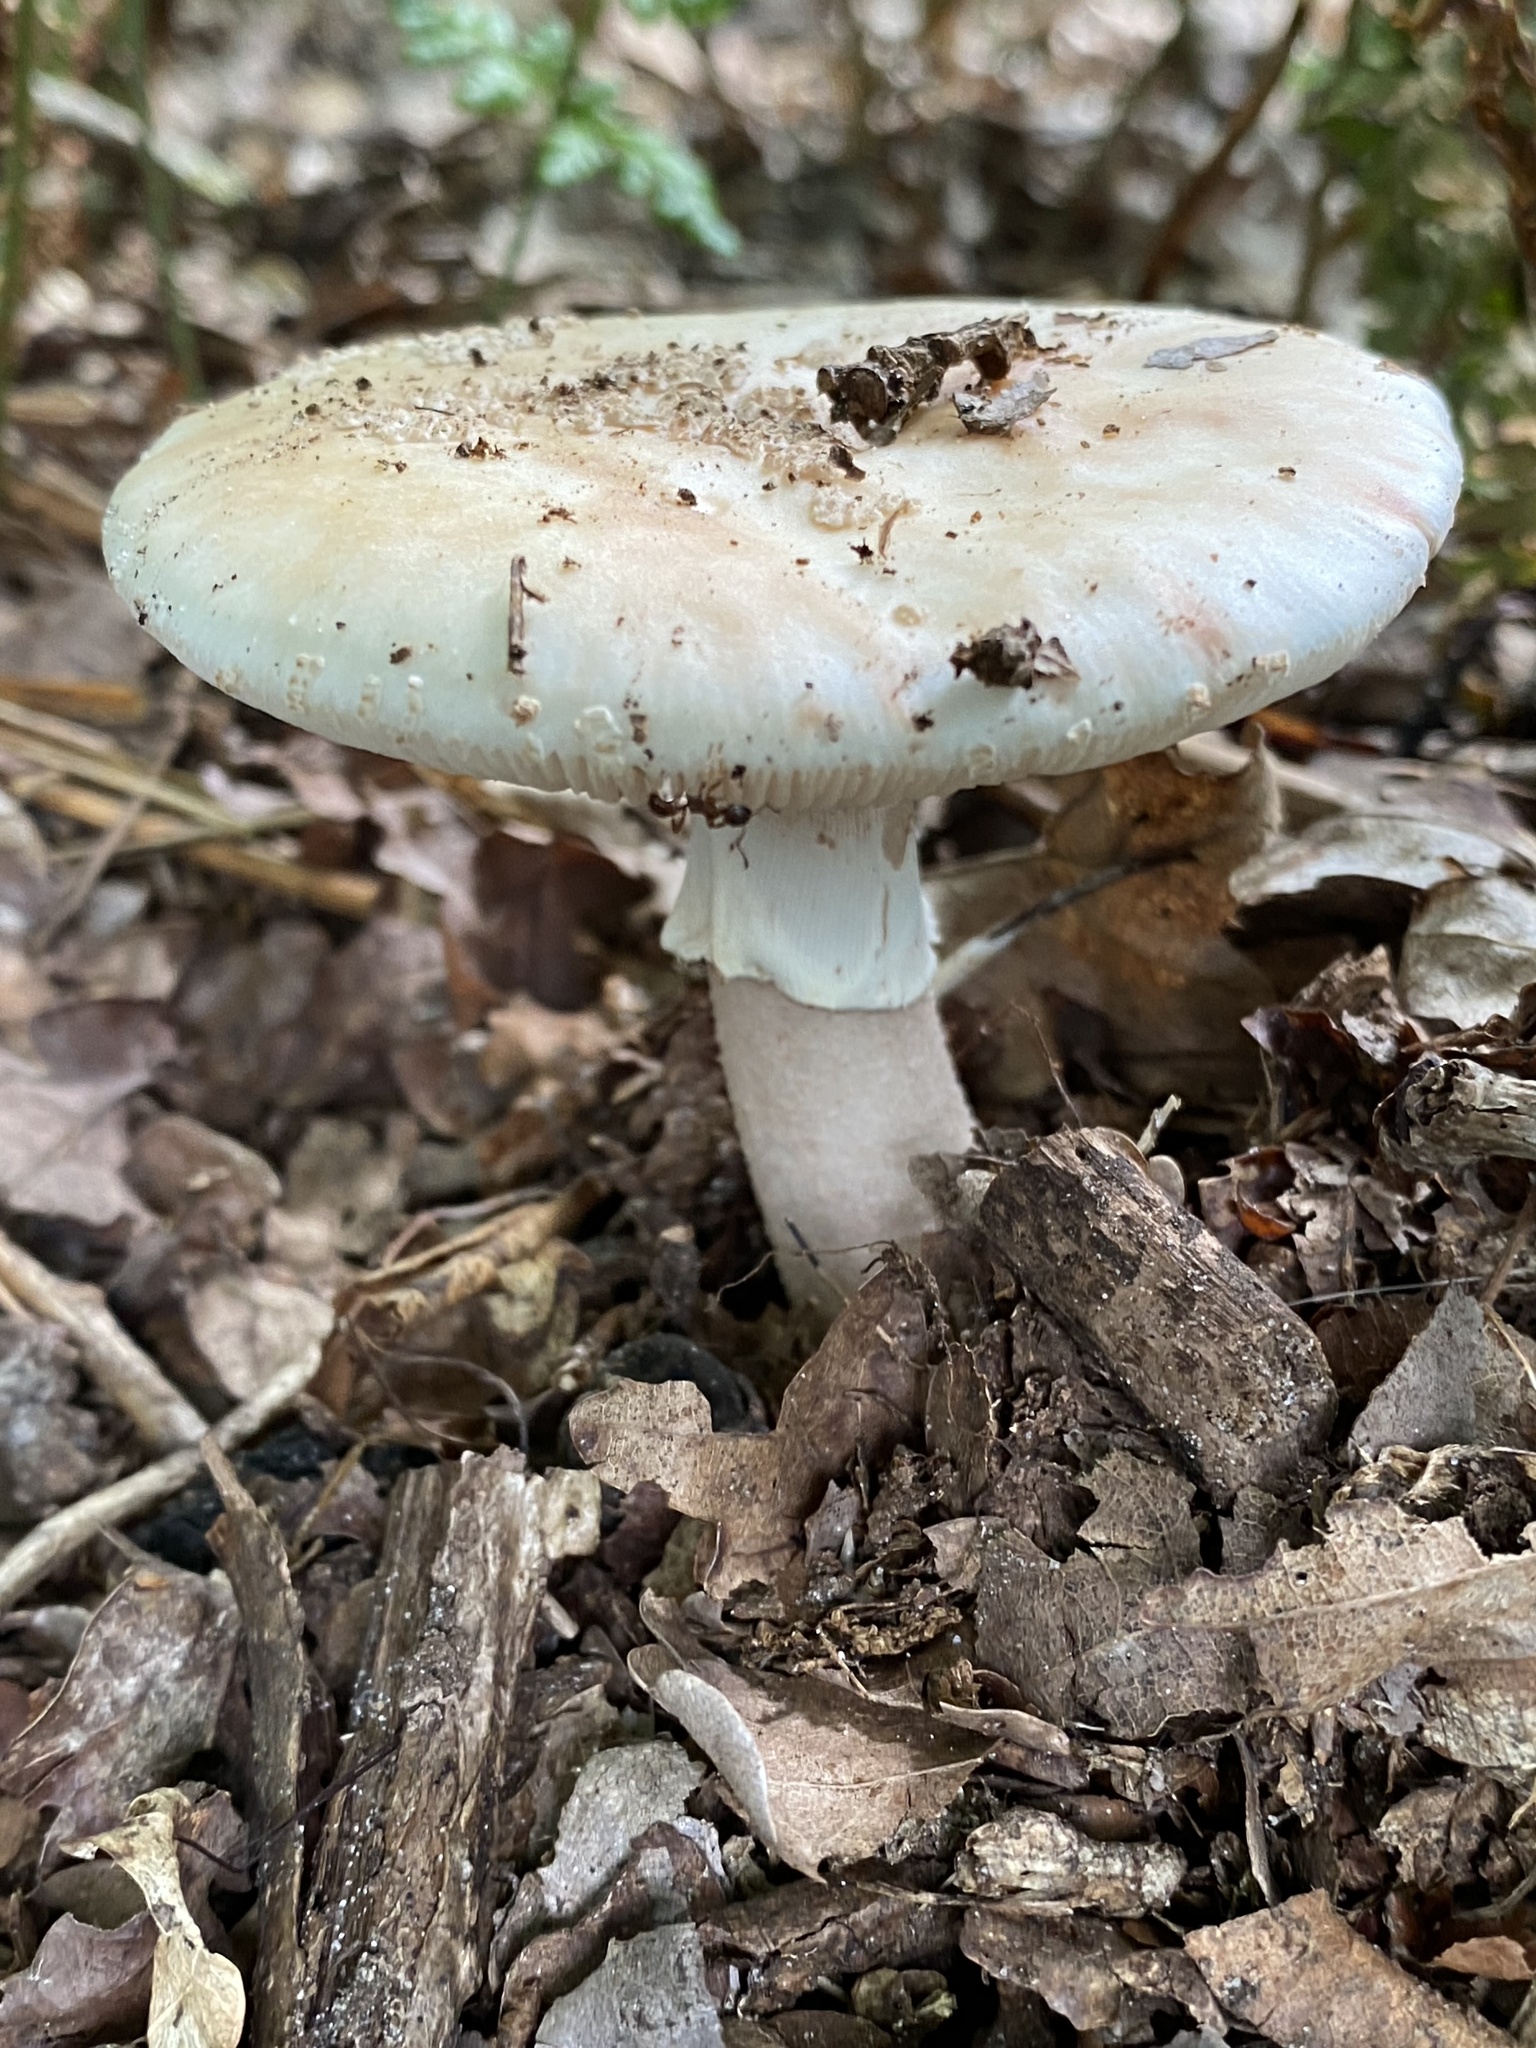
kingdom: Fungi
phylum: Basidiomycota
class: Agaricomycetes
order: Agaricales
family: Amanitaceae
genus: Amanita
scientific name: Amanita rubescens
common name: Blusher
